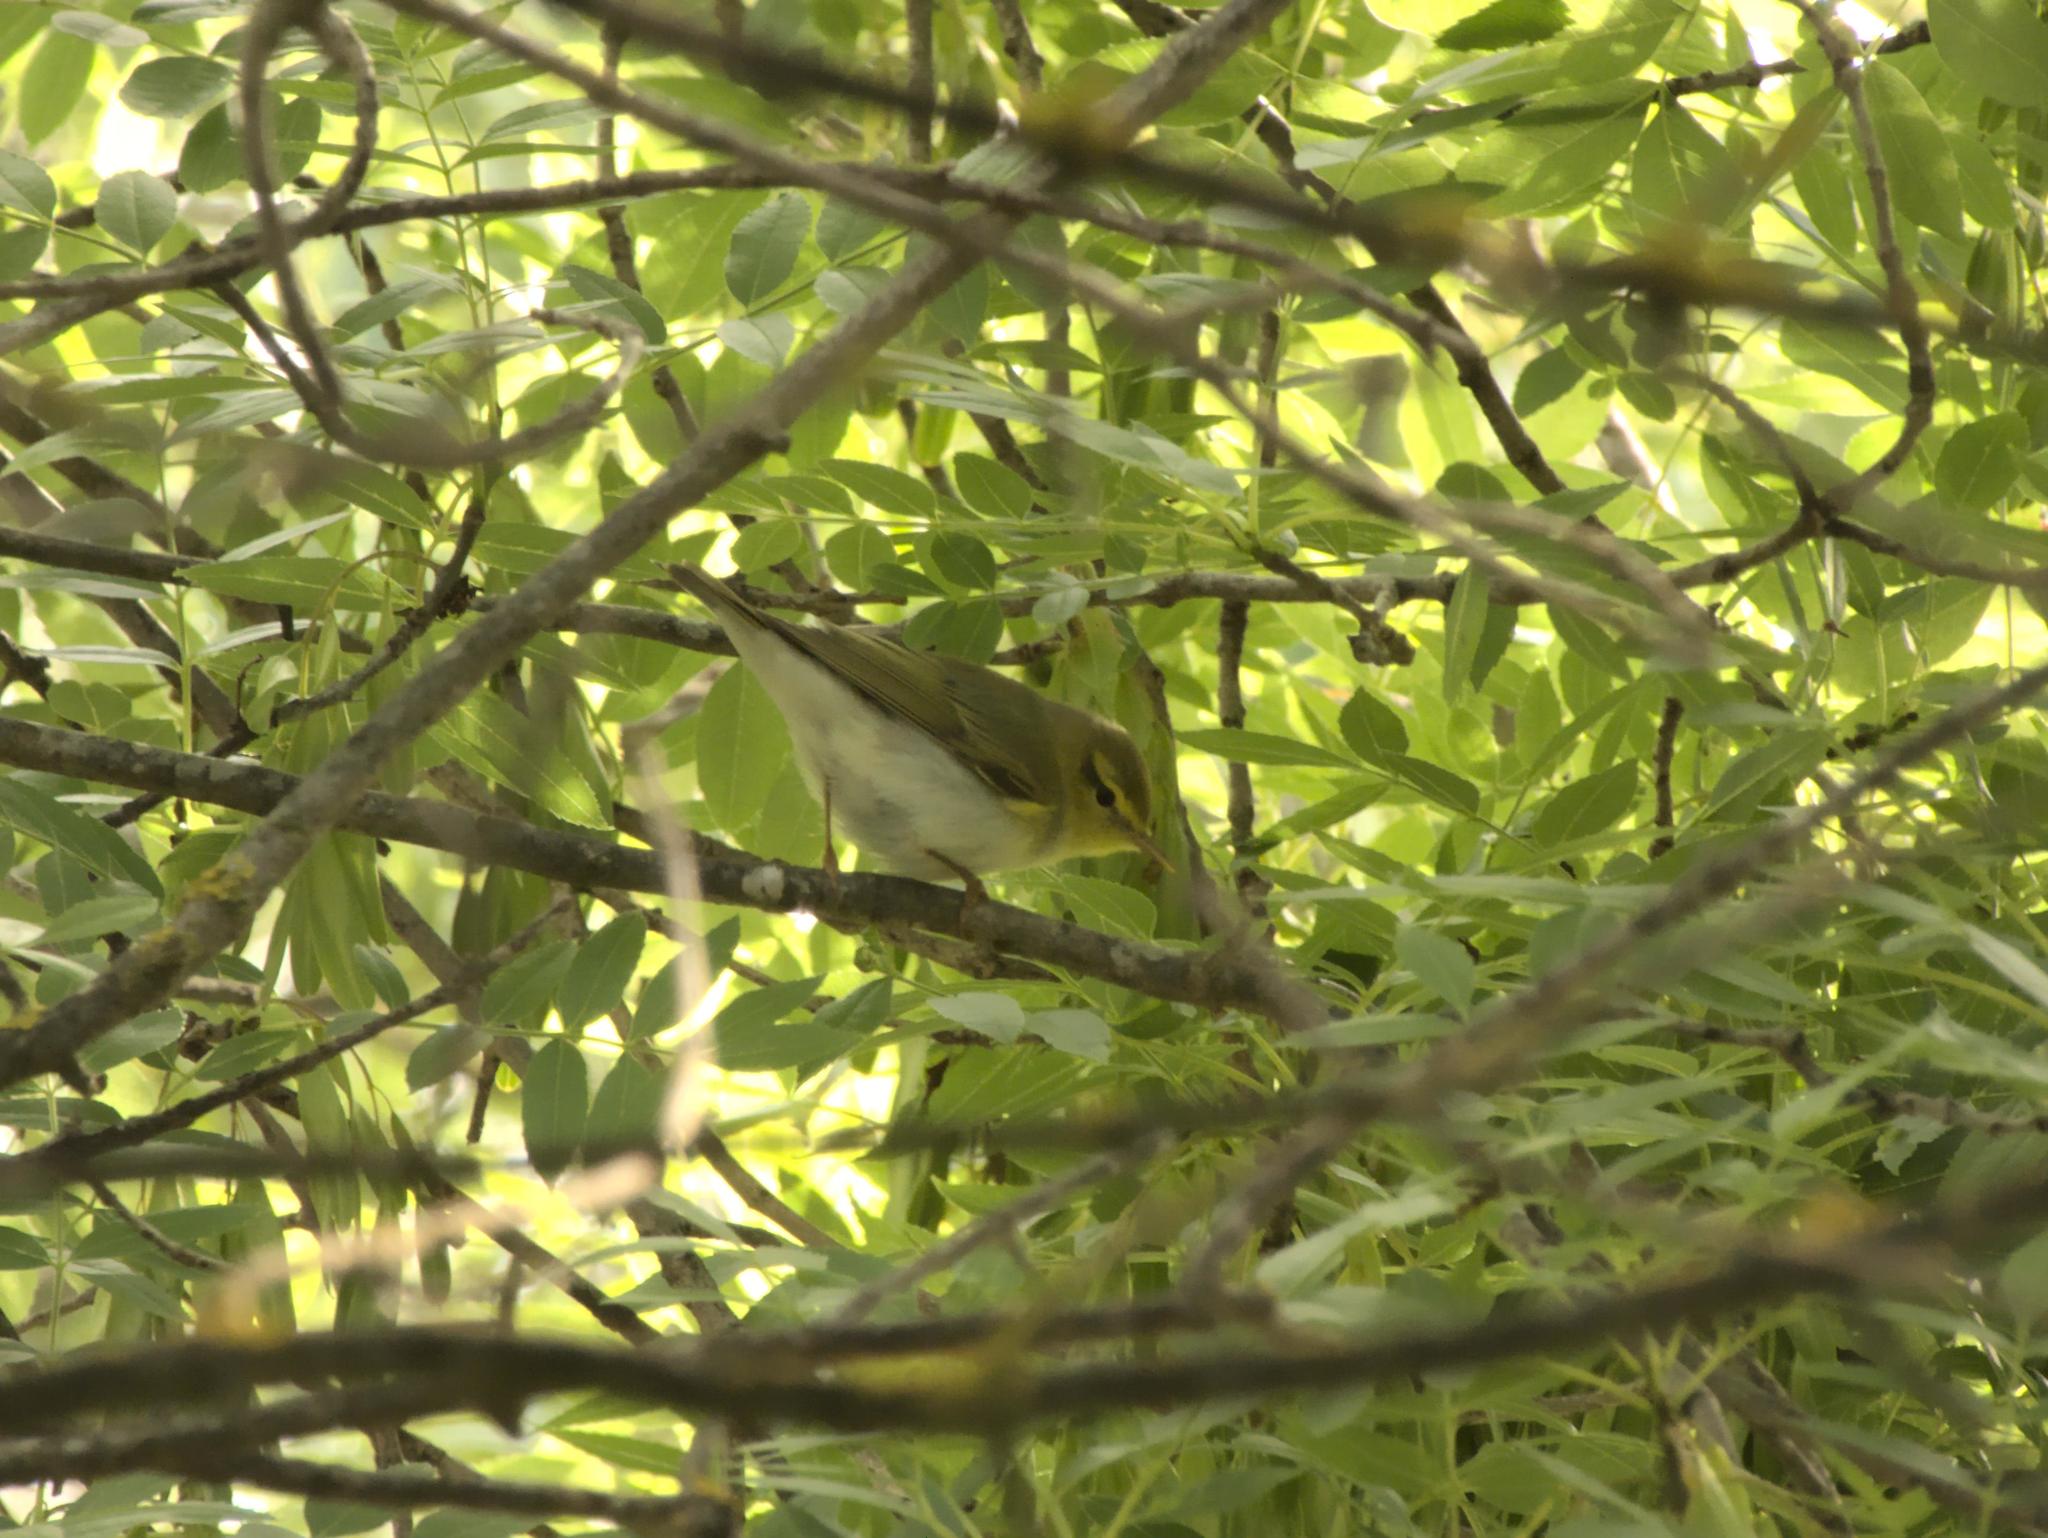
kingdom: Animalia
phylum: Chordata
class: Aves
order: Passeriformes
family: Phylloscopidae
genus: Phylloscopus
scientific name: Phylloscopus sibillatrix
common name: Wood warbler
